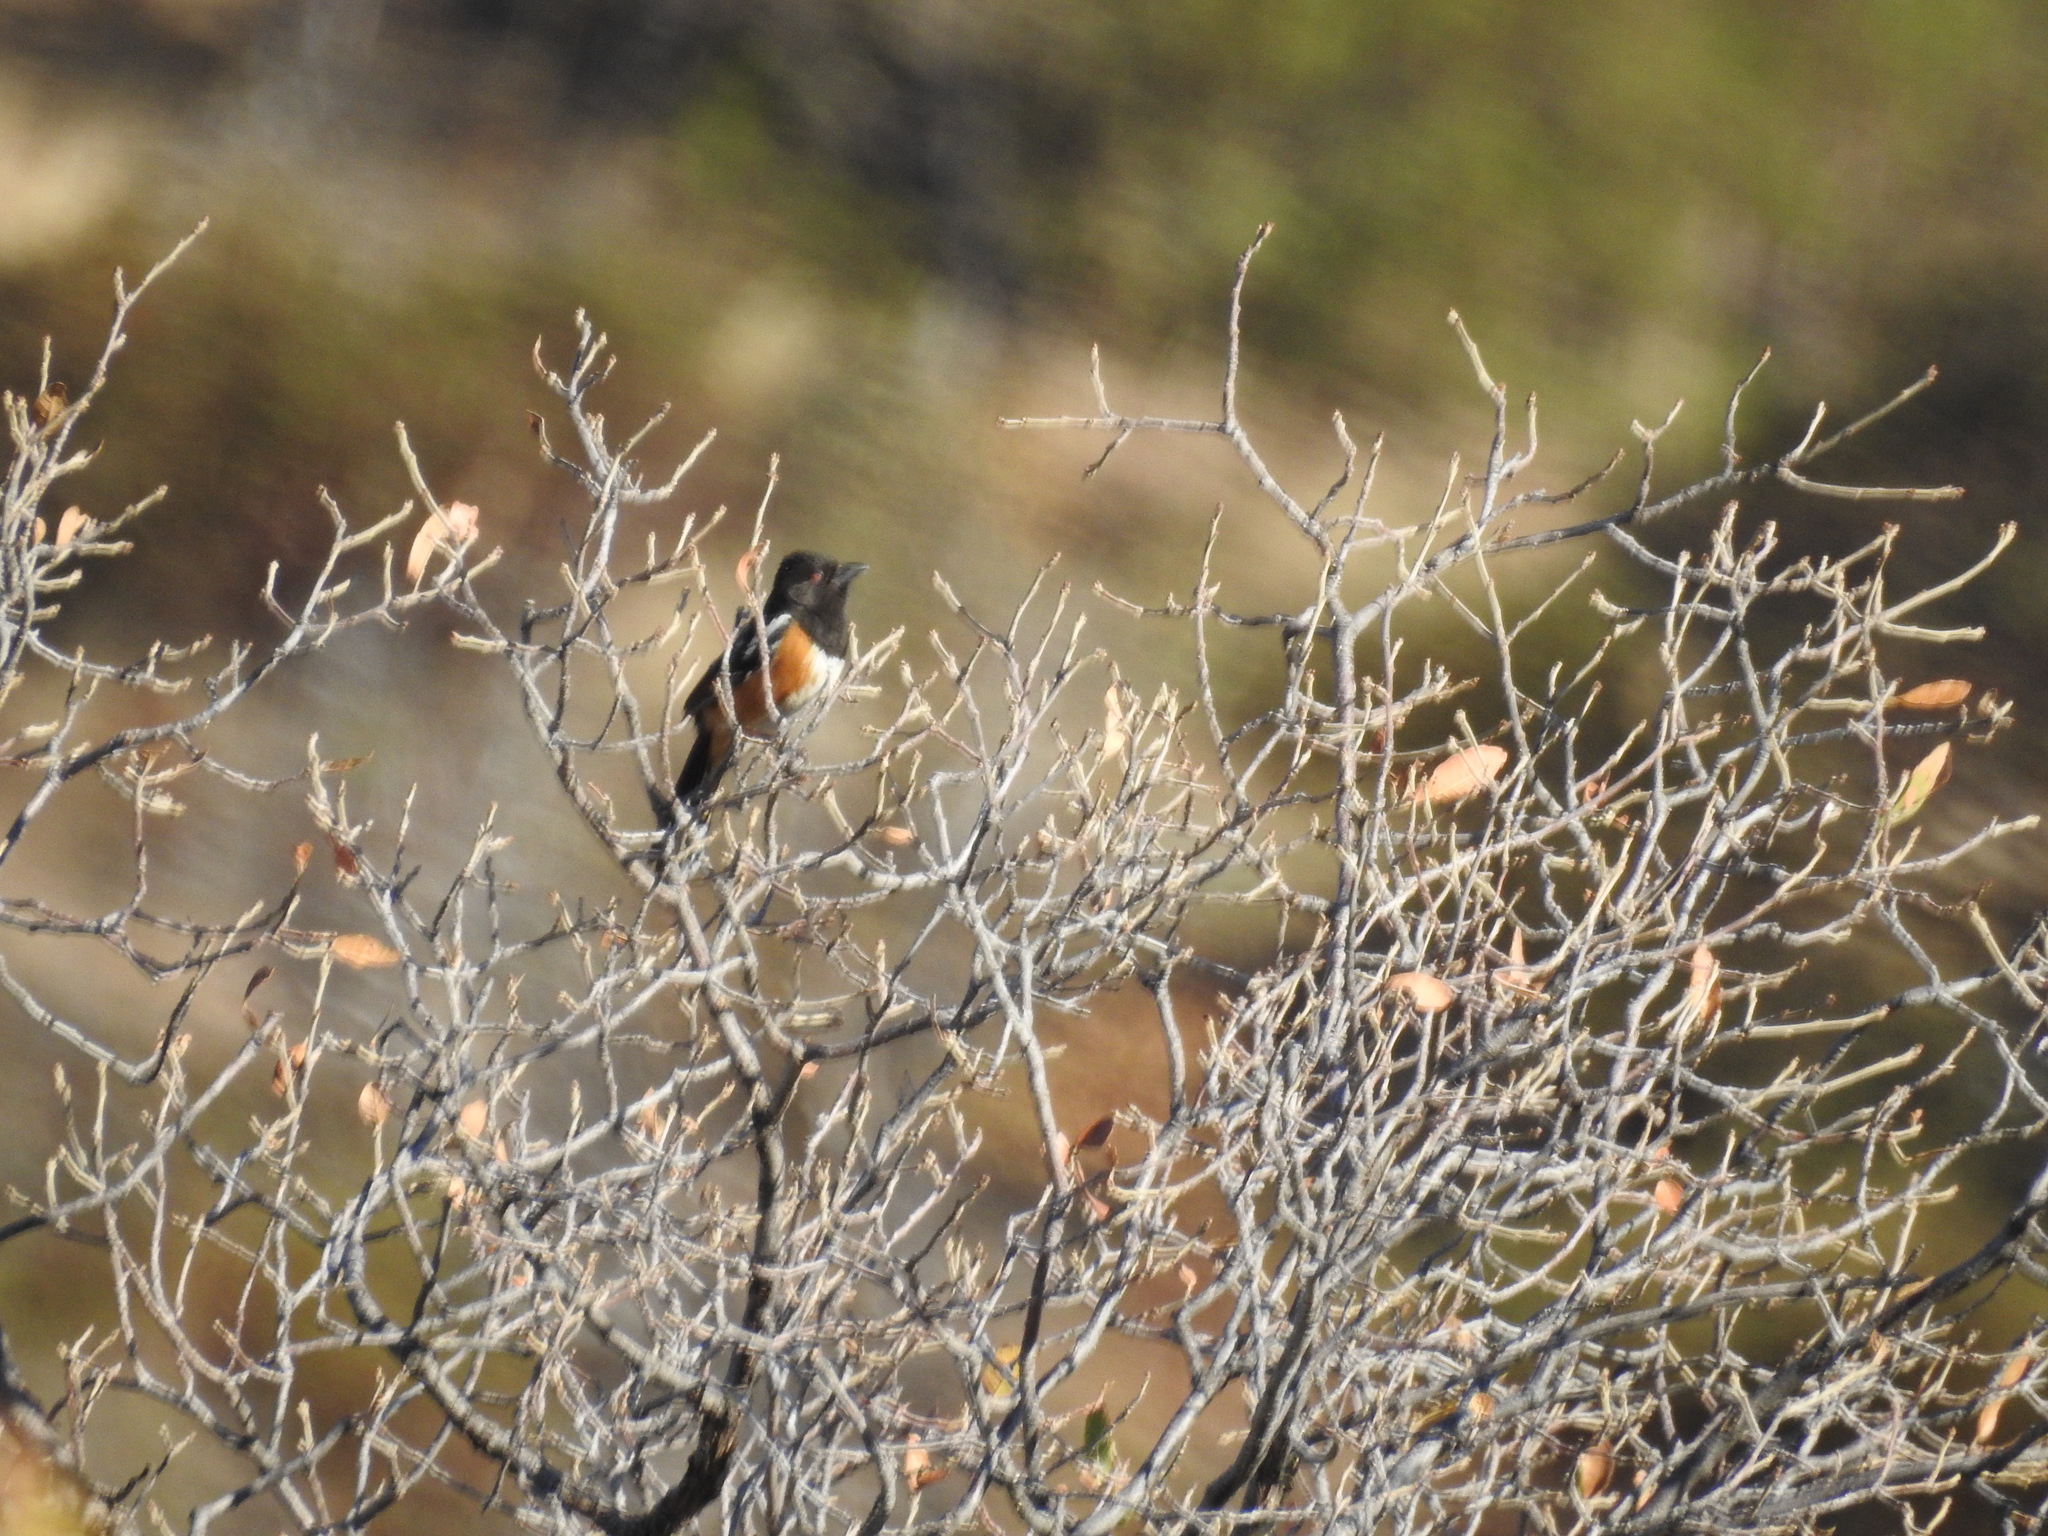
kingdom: Animalia
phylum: Chordata
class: Aves
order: Passeriformes
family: Passerellidae
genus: Pipilo
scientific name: Pipilo maculatus
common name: Spotted towhee
